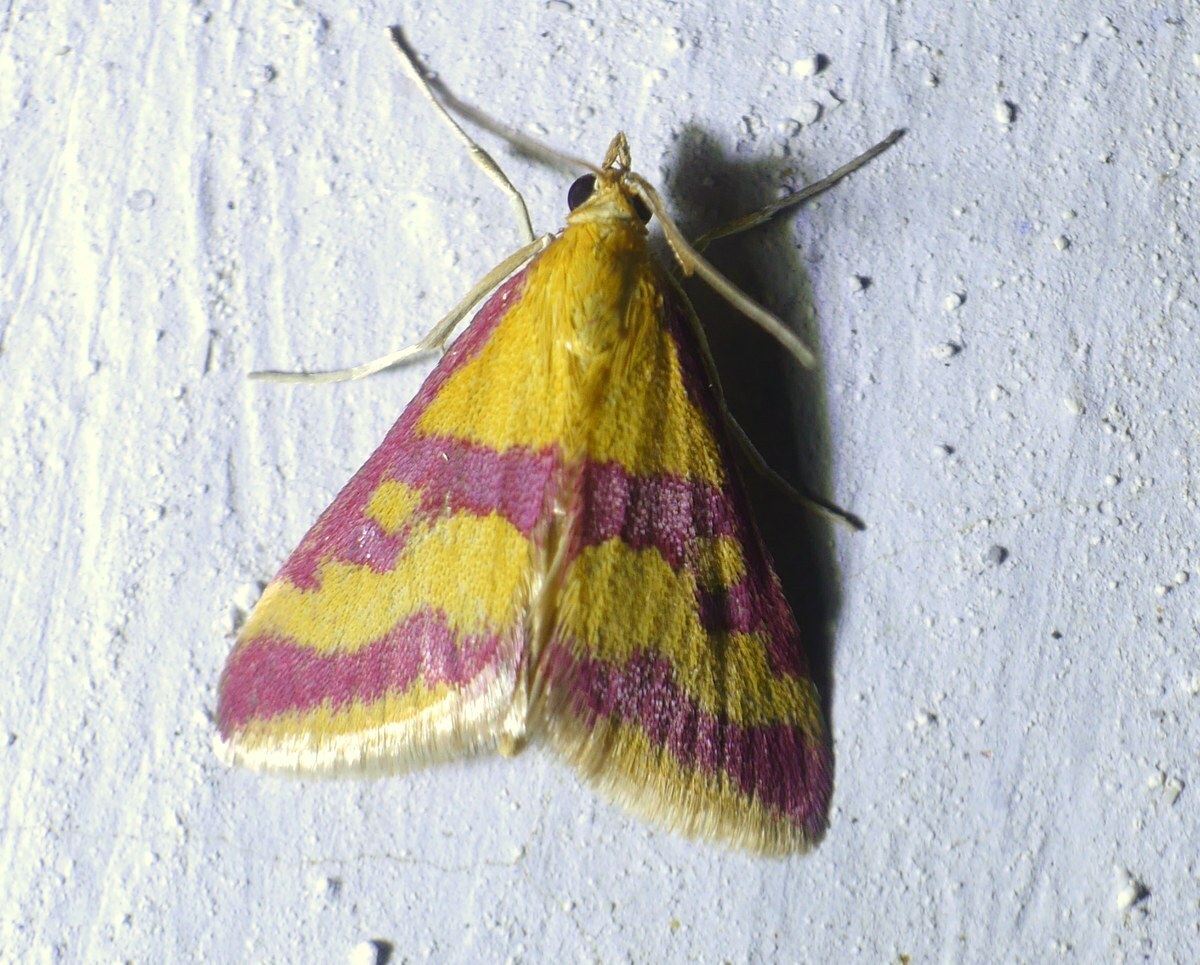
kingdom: Animalia
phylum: Arthropoda
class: Insecta
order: Lepidoptera
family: Crambidae
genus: Pyrausta
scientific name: Pyrausta sanguinalis
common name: Scarce crimson and gold
